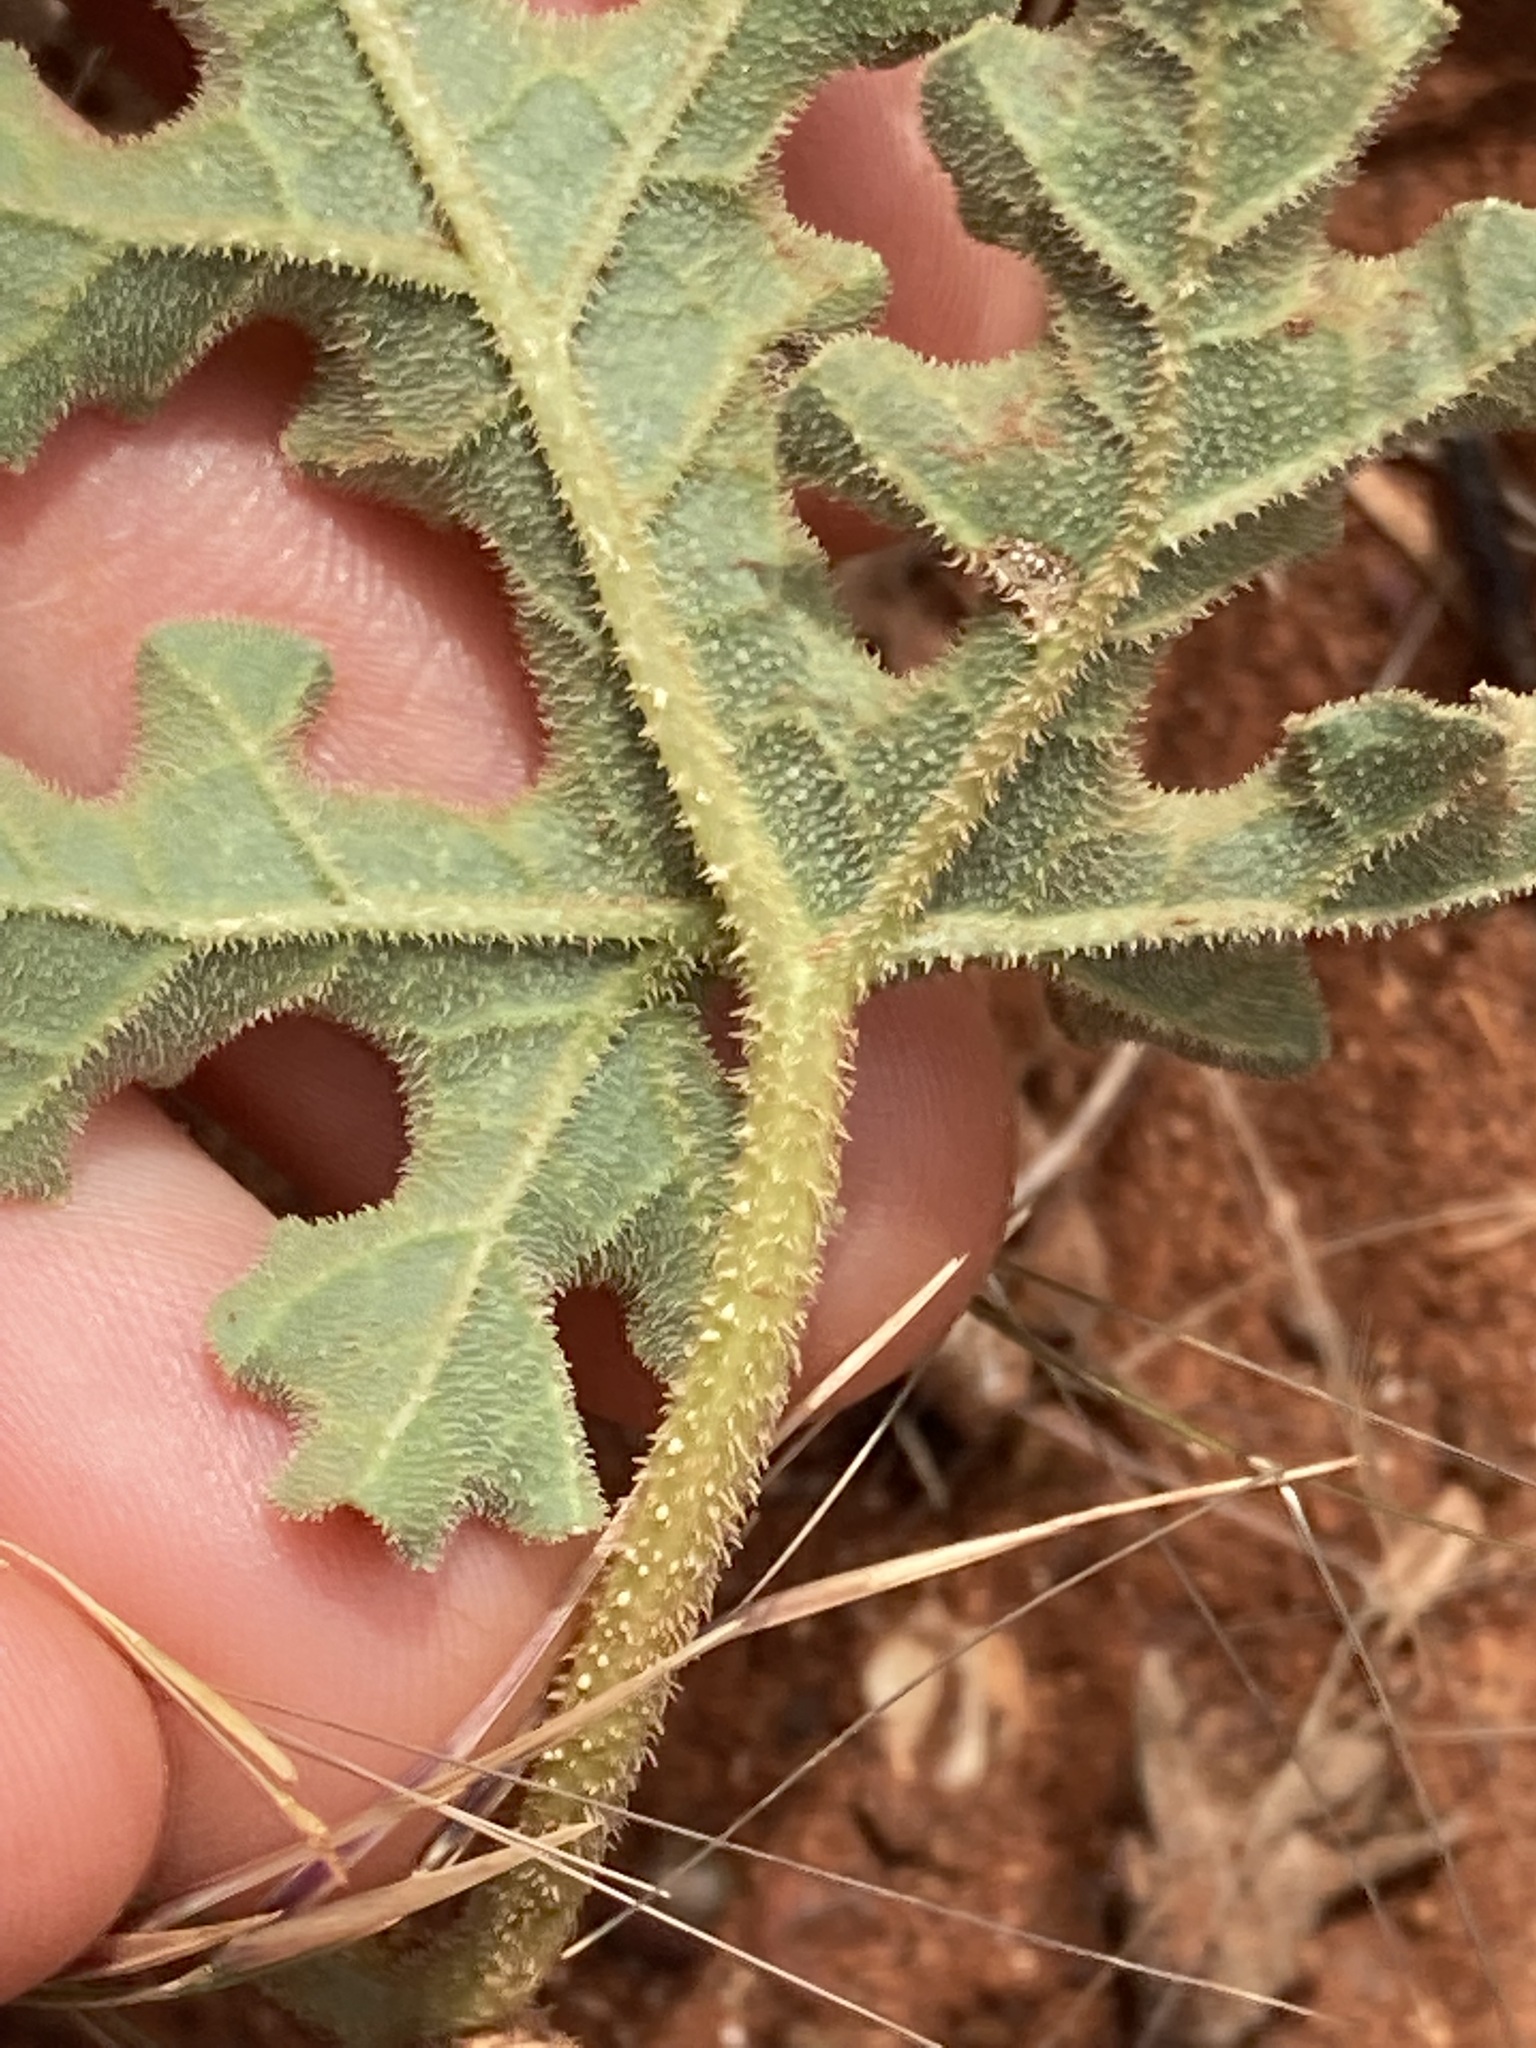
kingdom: Plantae
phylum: Tracheophyta
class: Magnoliopsida
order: Cucurbitales
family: Cucurbitaceae
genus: Citrullus
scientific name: Citrullus colocynthis
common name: Colocynth
